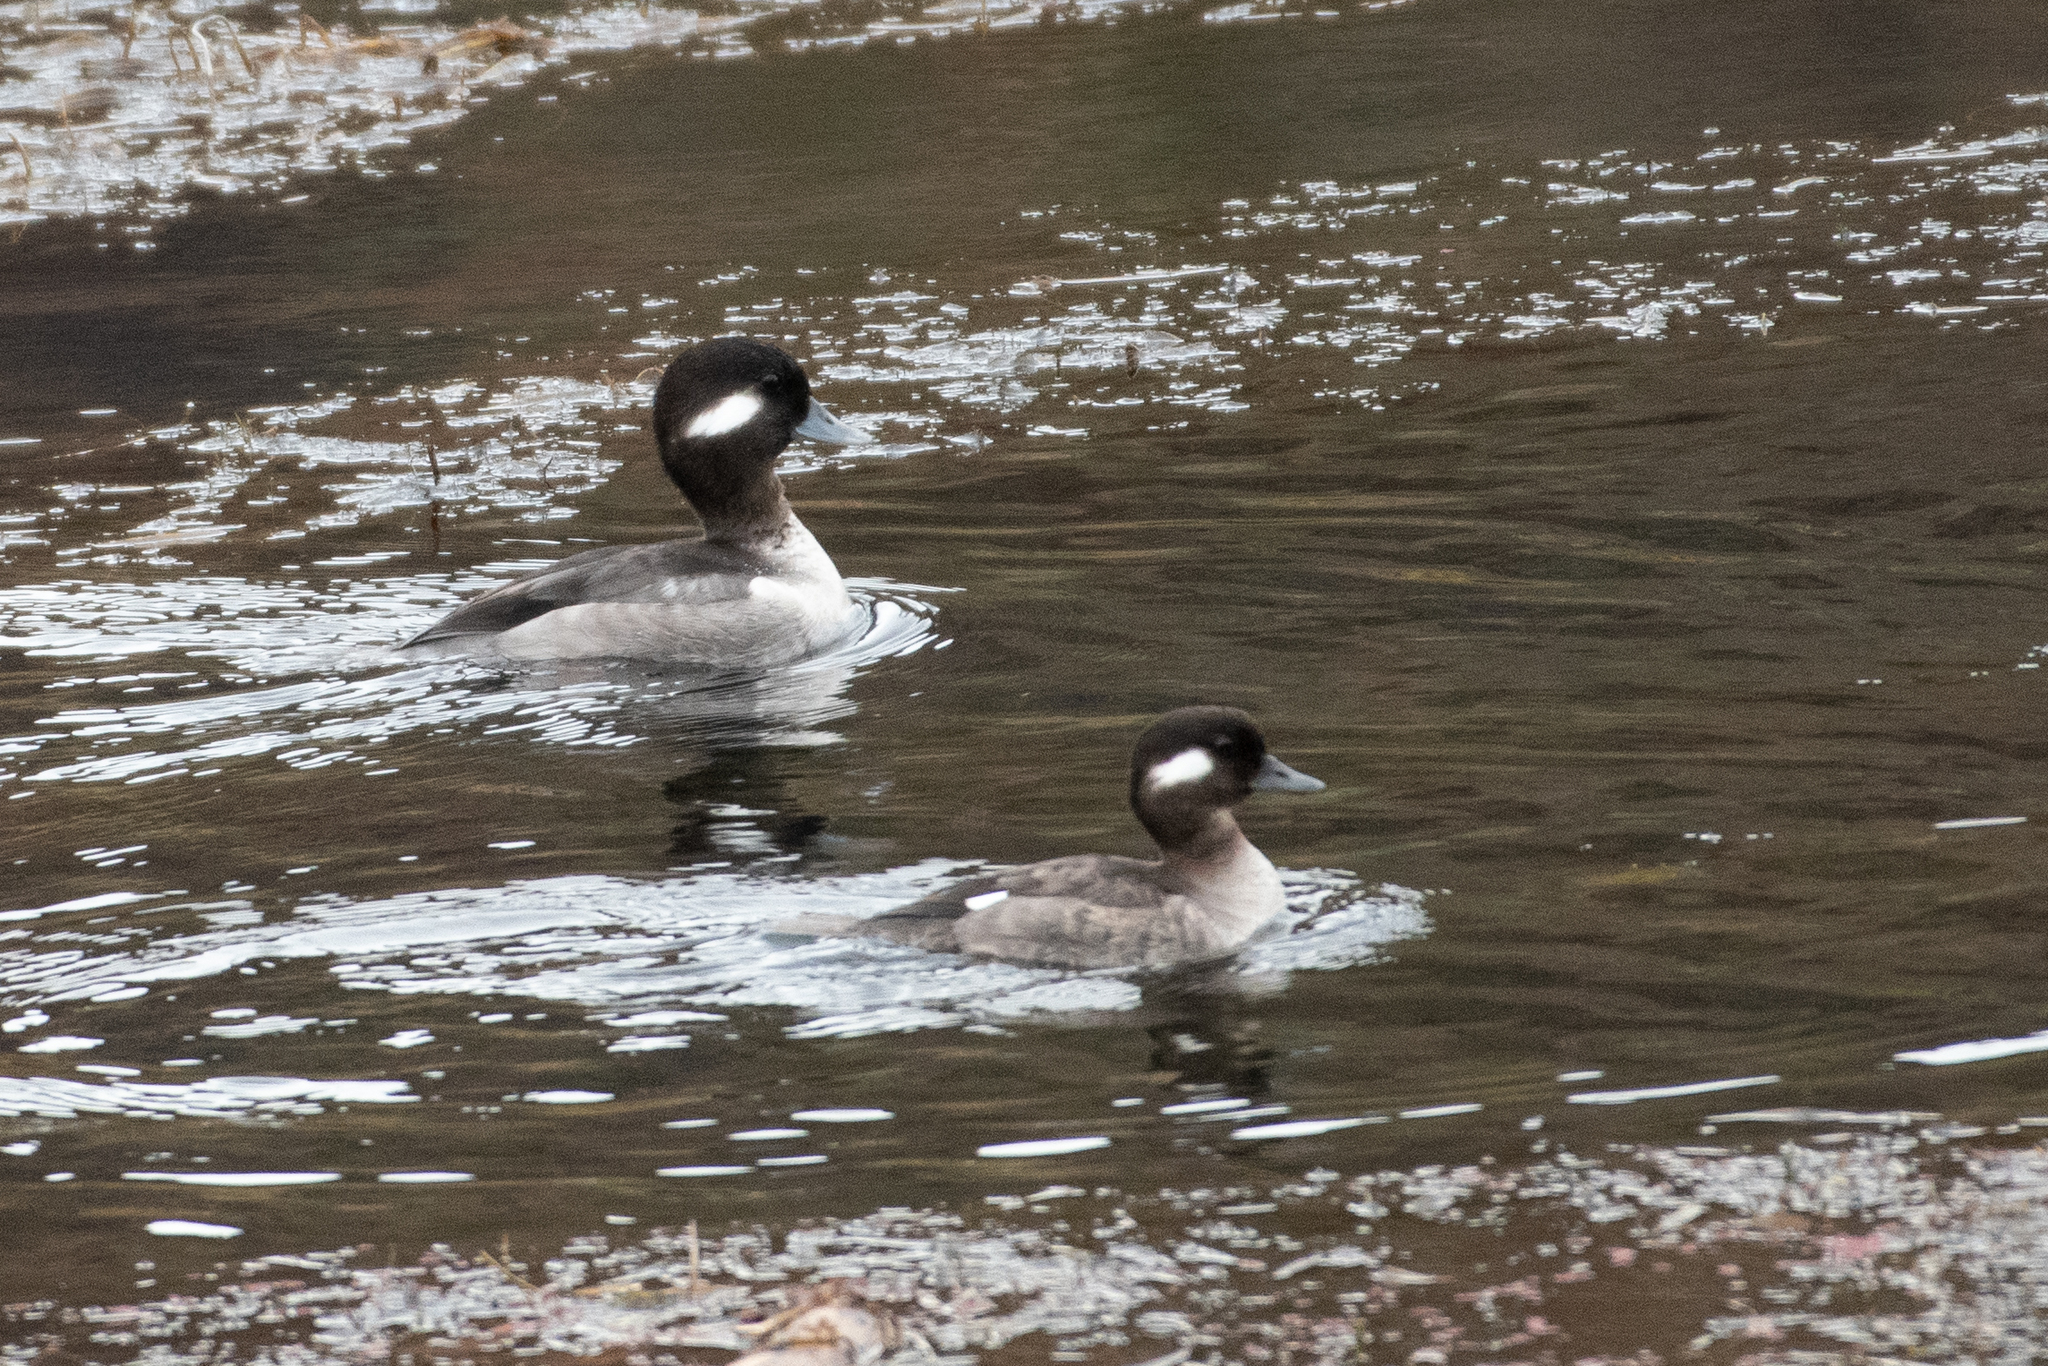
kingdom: Animalia
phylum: Chordata
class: Aves
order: Anseriformes
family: Anatidae
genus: Bucephala
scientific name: Bucephala albeola
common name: Bufflehead
